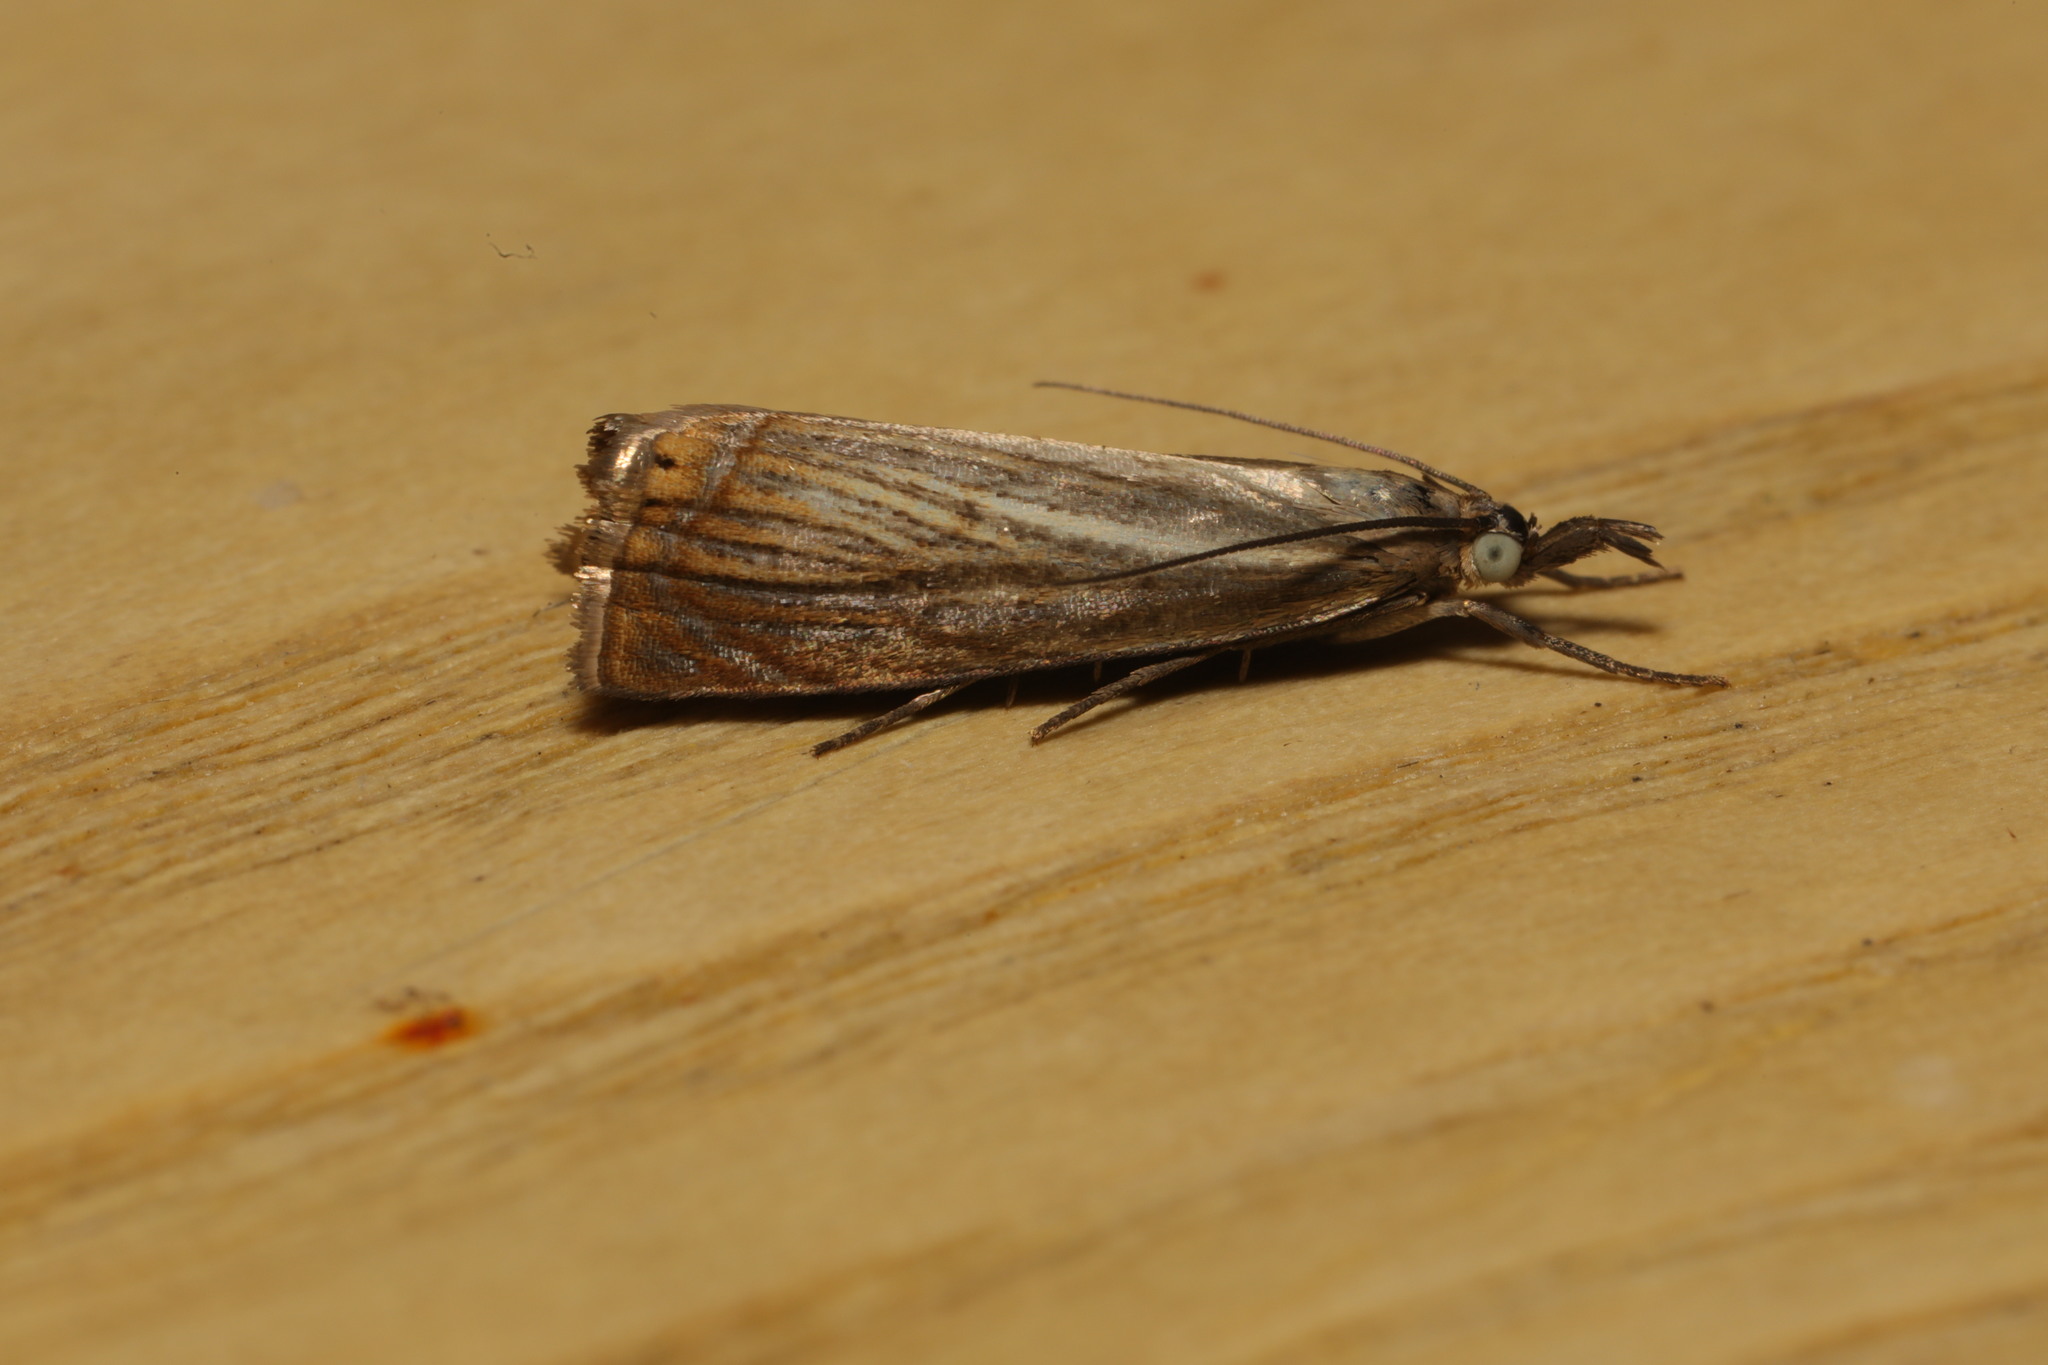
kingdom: Animalia
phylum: Arthropoda
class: Insecta
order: Lepidoptera
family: Crambidae
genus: Chrysoteuchia
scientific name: Chrysoteuchia culmella
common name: Garden grass-veneer
